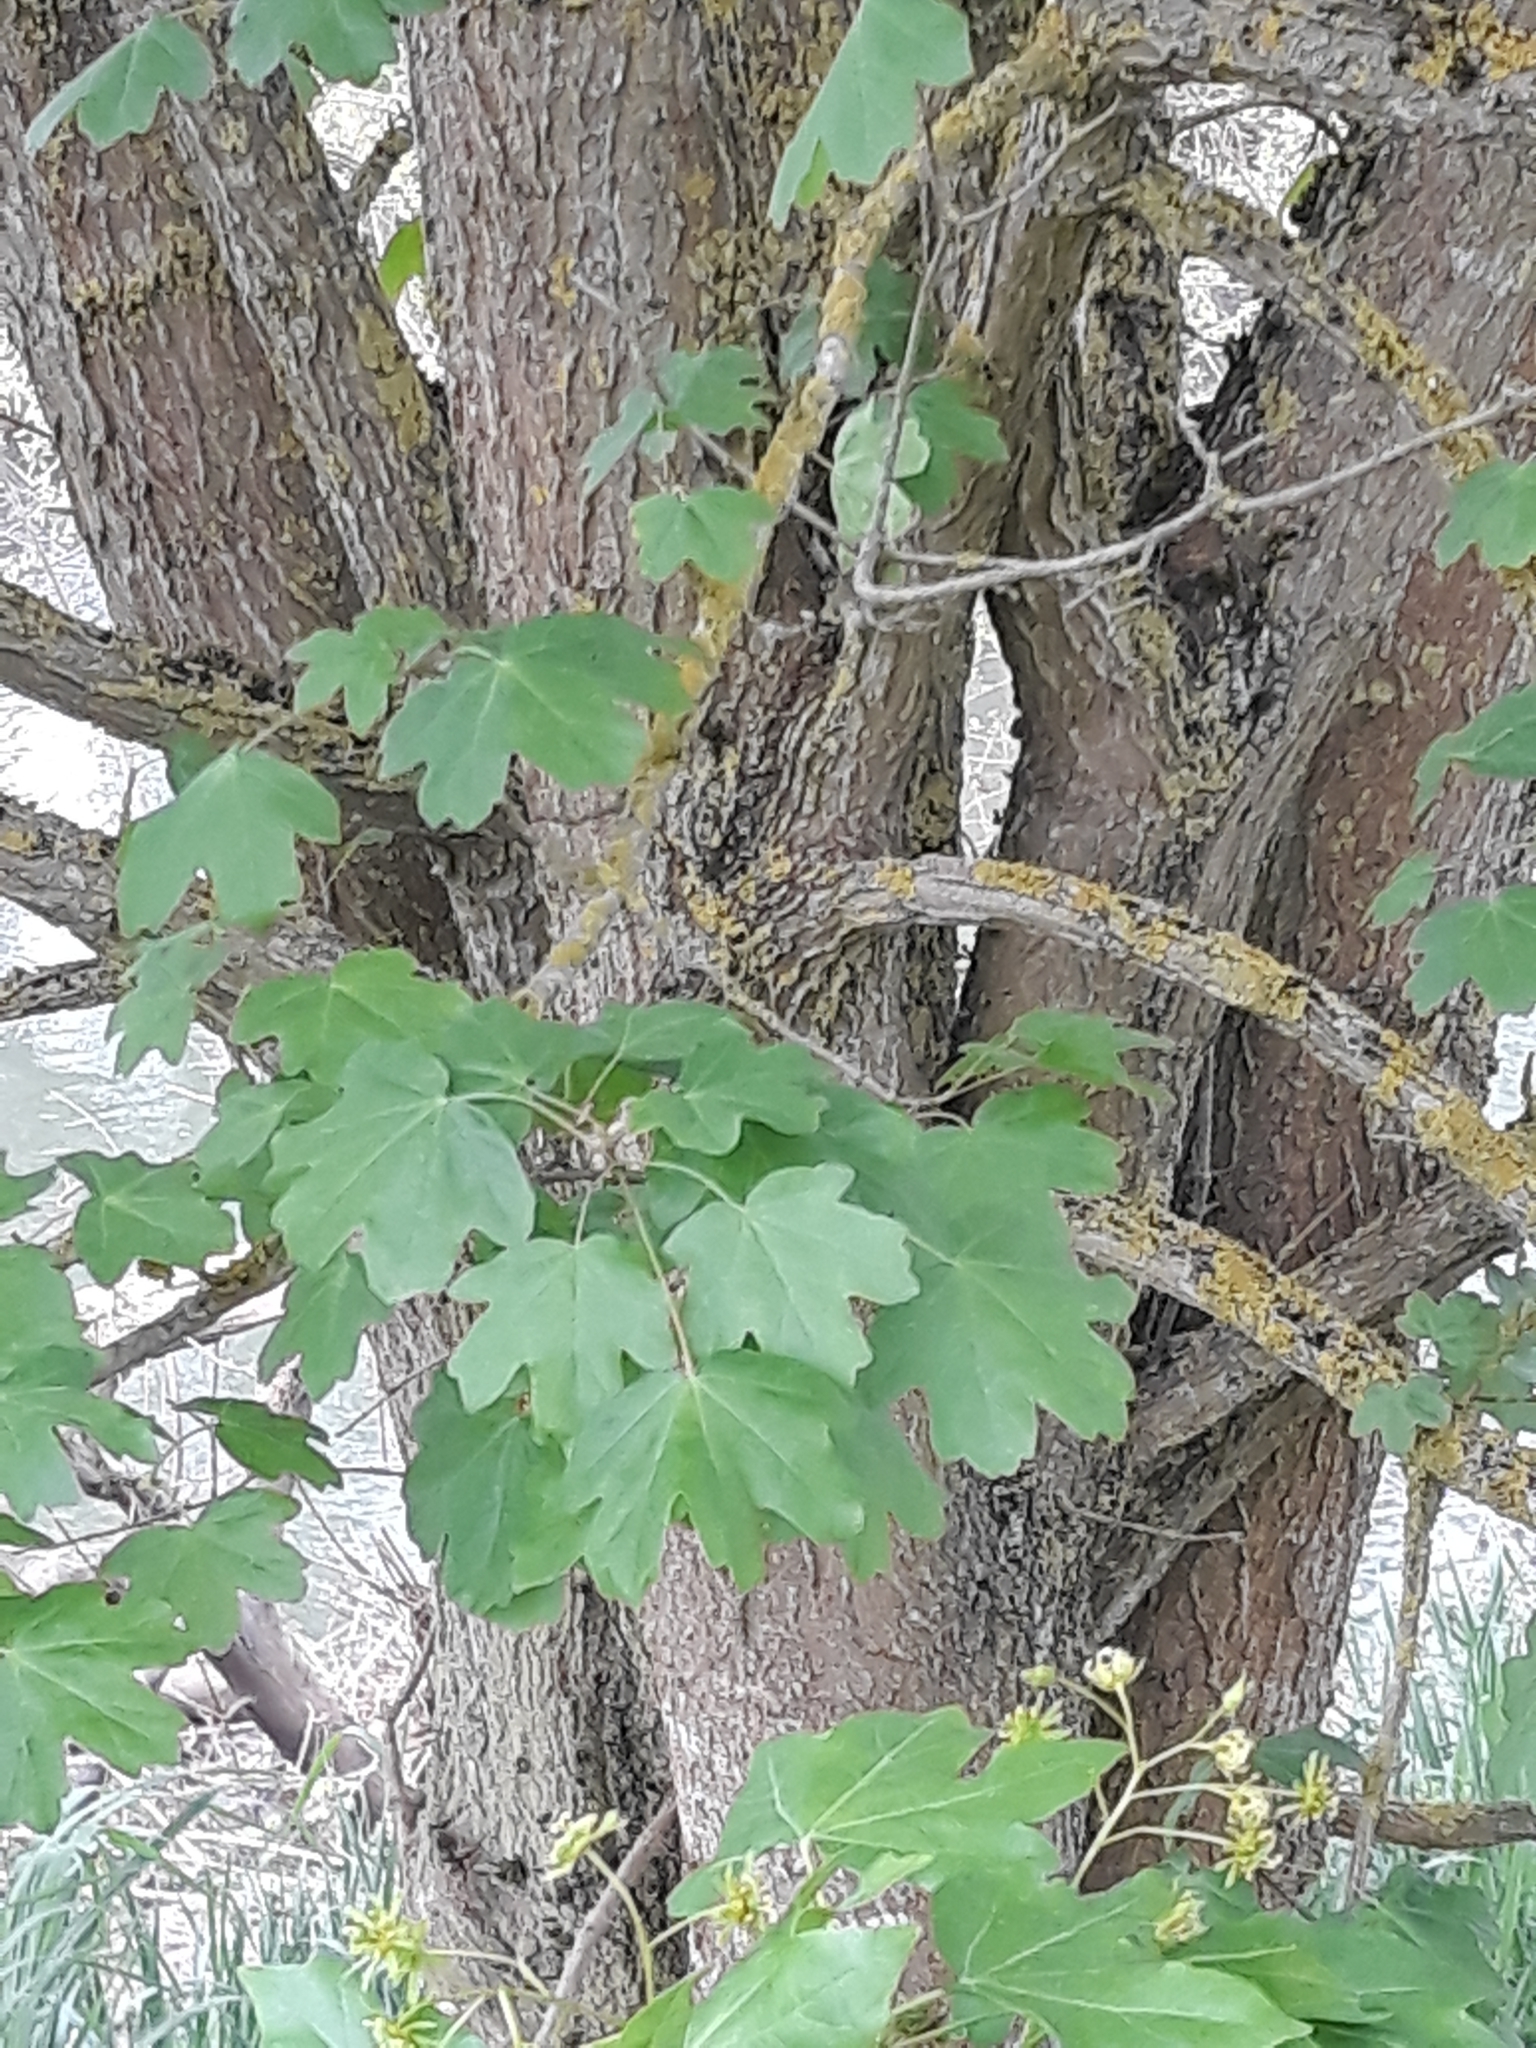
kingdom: Plantae
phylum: Tracheophyta
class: Magnoliopsida
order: Sapindales
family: Sapindaceae
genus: Acer
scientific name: Acer campestre
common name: Field maple
